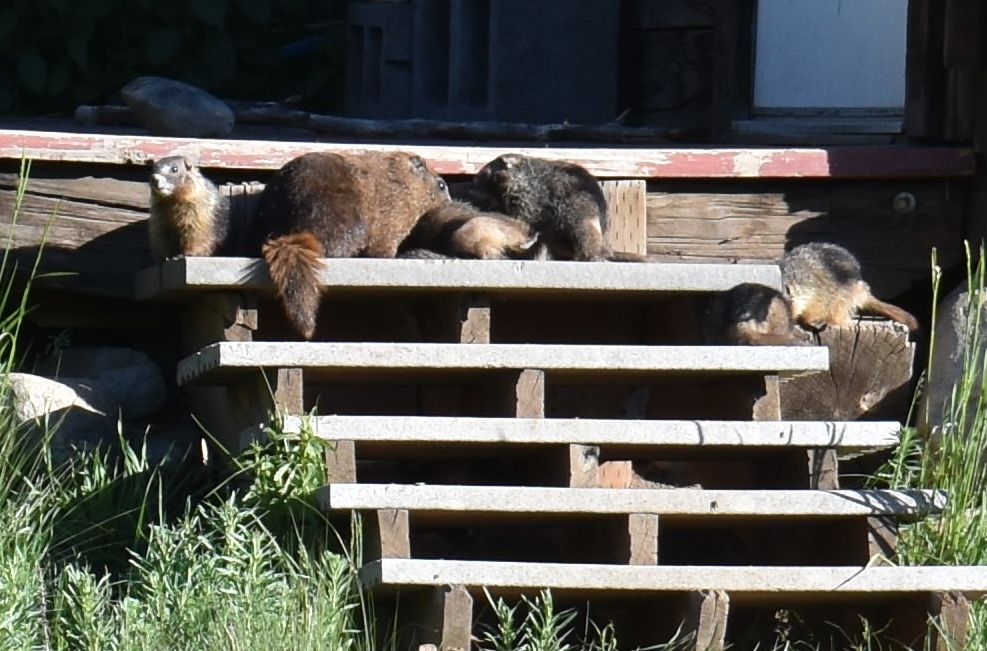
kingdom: Animalia
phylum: Chordata
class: Mammalia
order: Rodentia
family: Sciuridae
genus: Marmota
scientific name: Marmota flaviventris
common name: Yellow-bellied marmot
